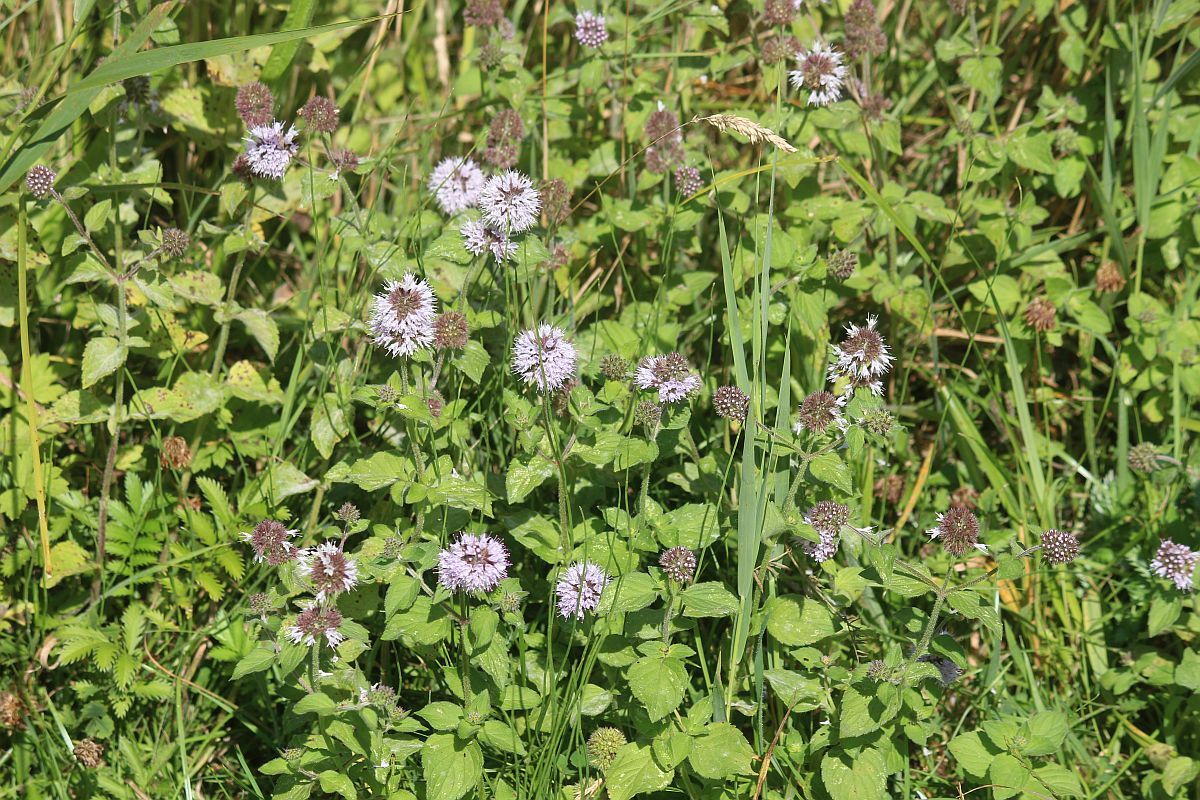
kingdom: Plantae
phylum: Tracheophyta
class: Magnoliopsida
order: Lamiales
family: Lamiaceae
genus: Mentha
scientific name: Mentha aquatica
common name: Water mint
